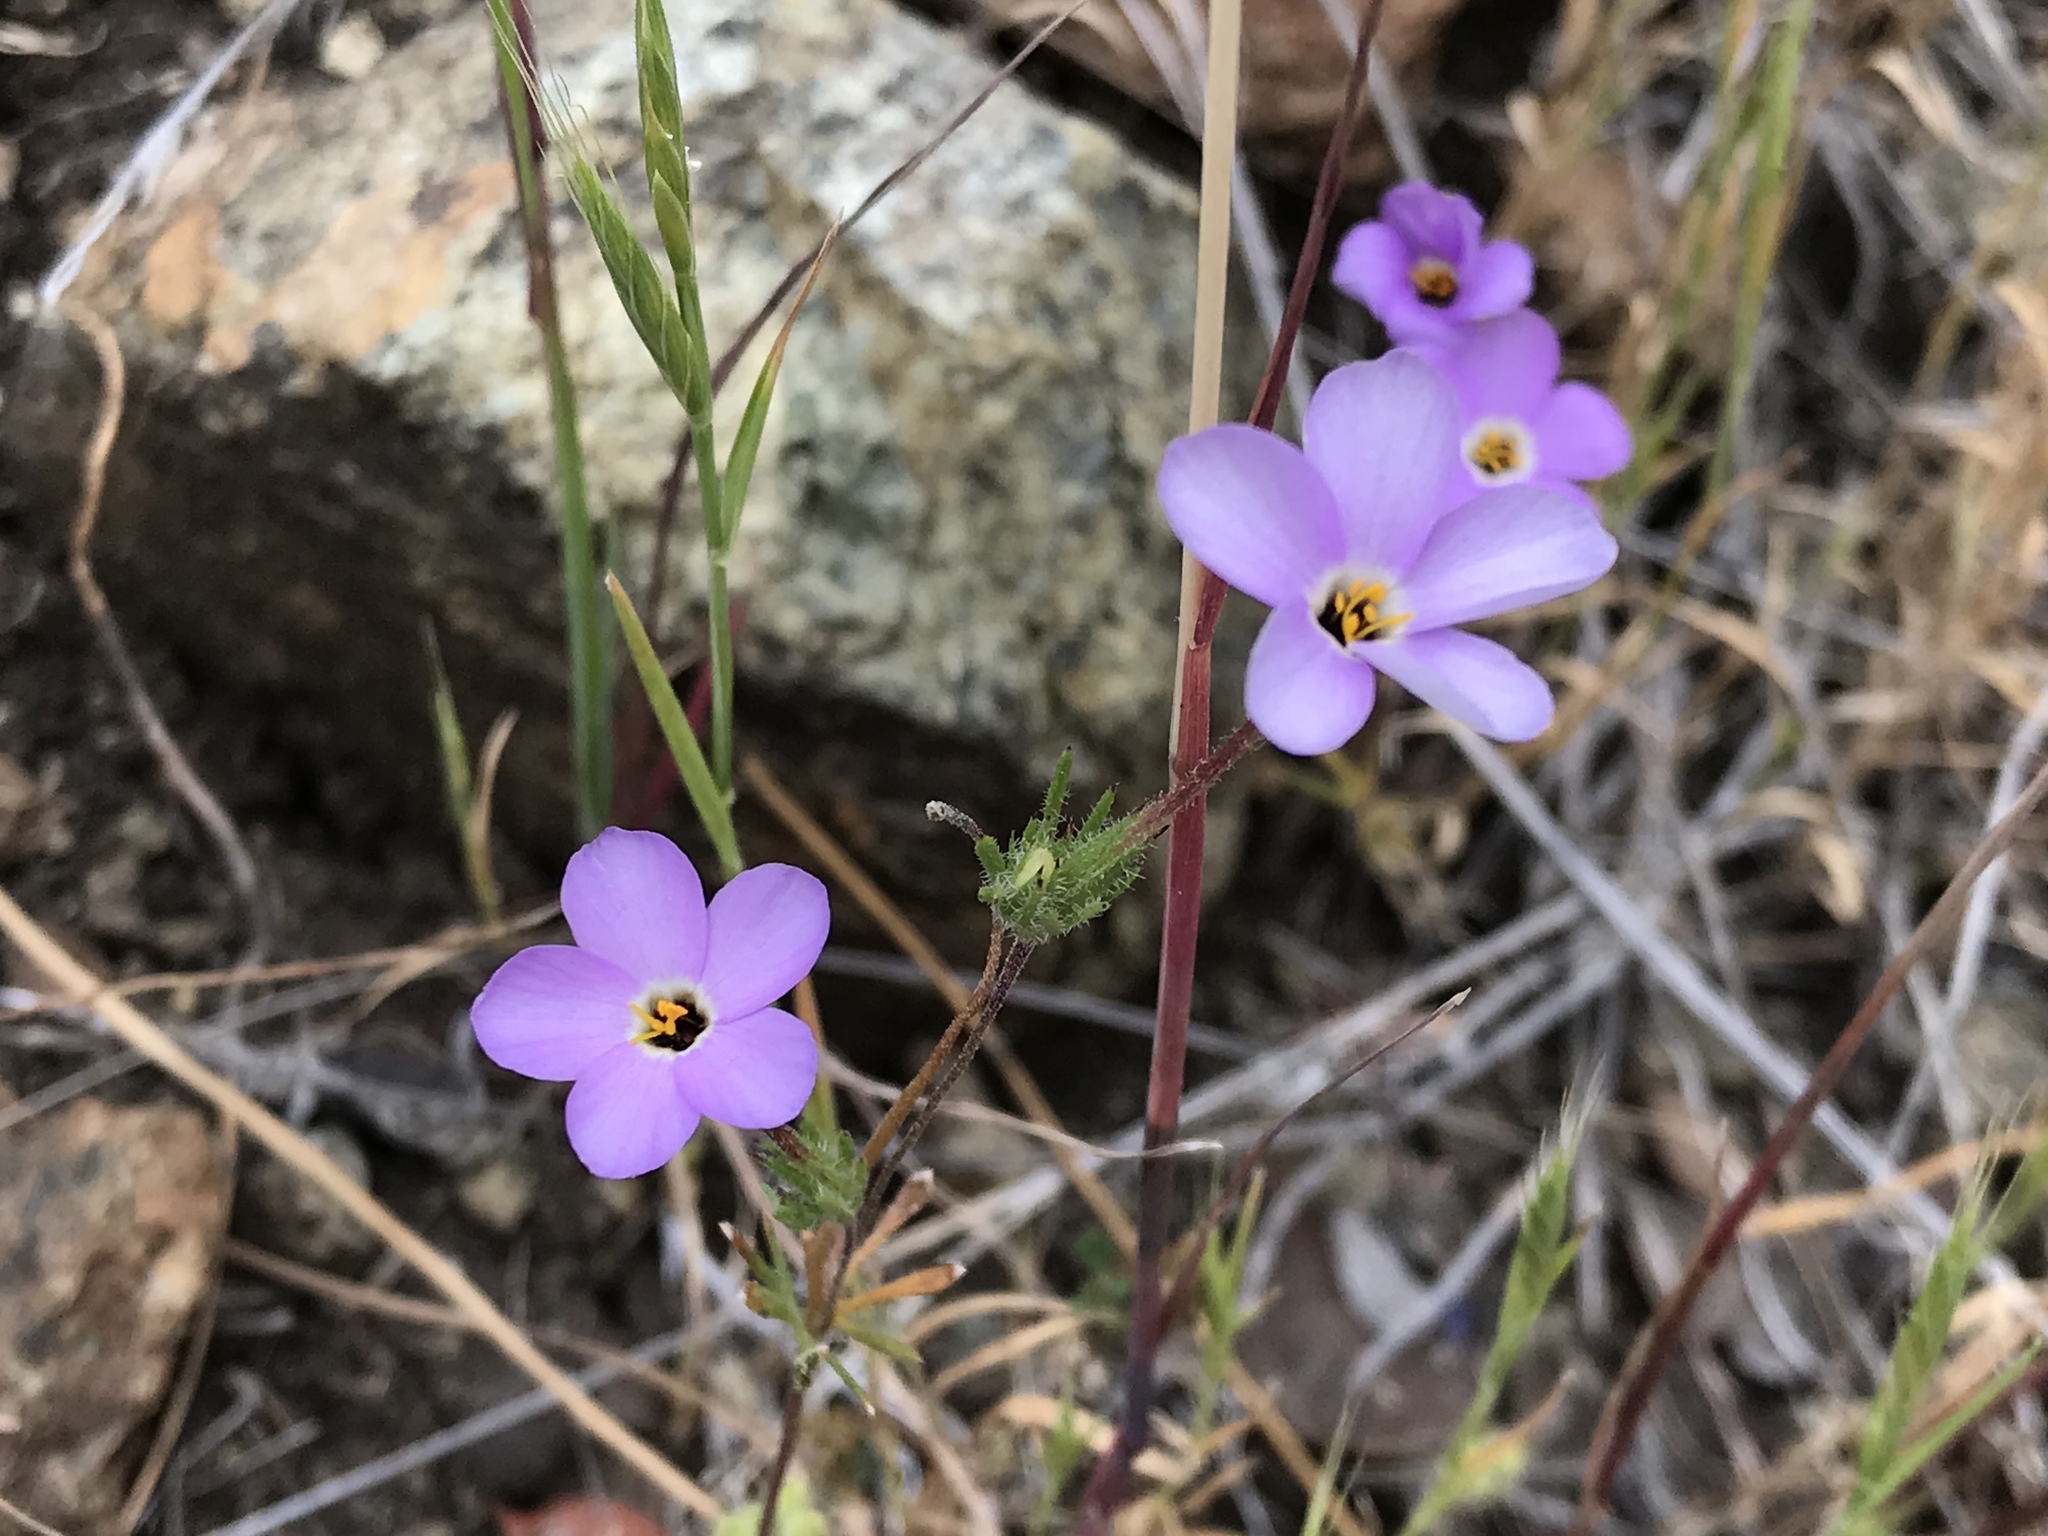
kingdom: Plantae
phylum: Tracheophyta
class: Magnoliopsida
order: Ericales
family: Polemoniaceae
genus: Leptosiphon
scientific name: Leptosiphon androsaceus
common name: False babystars
